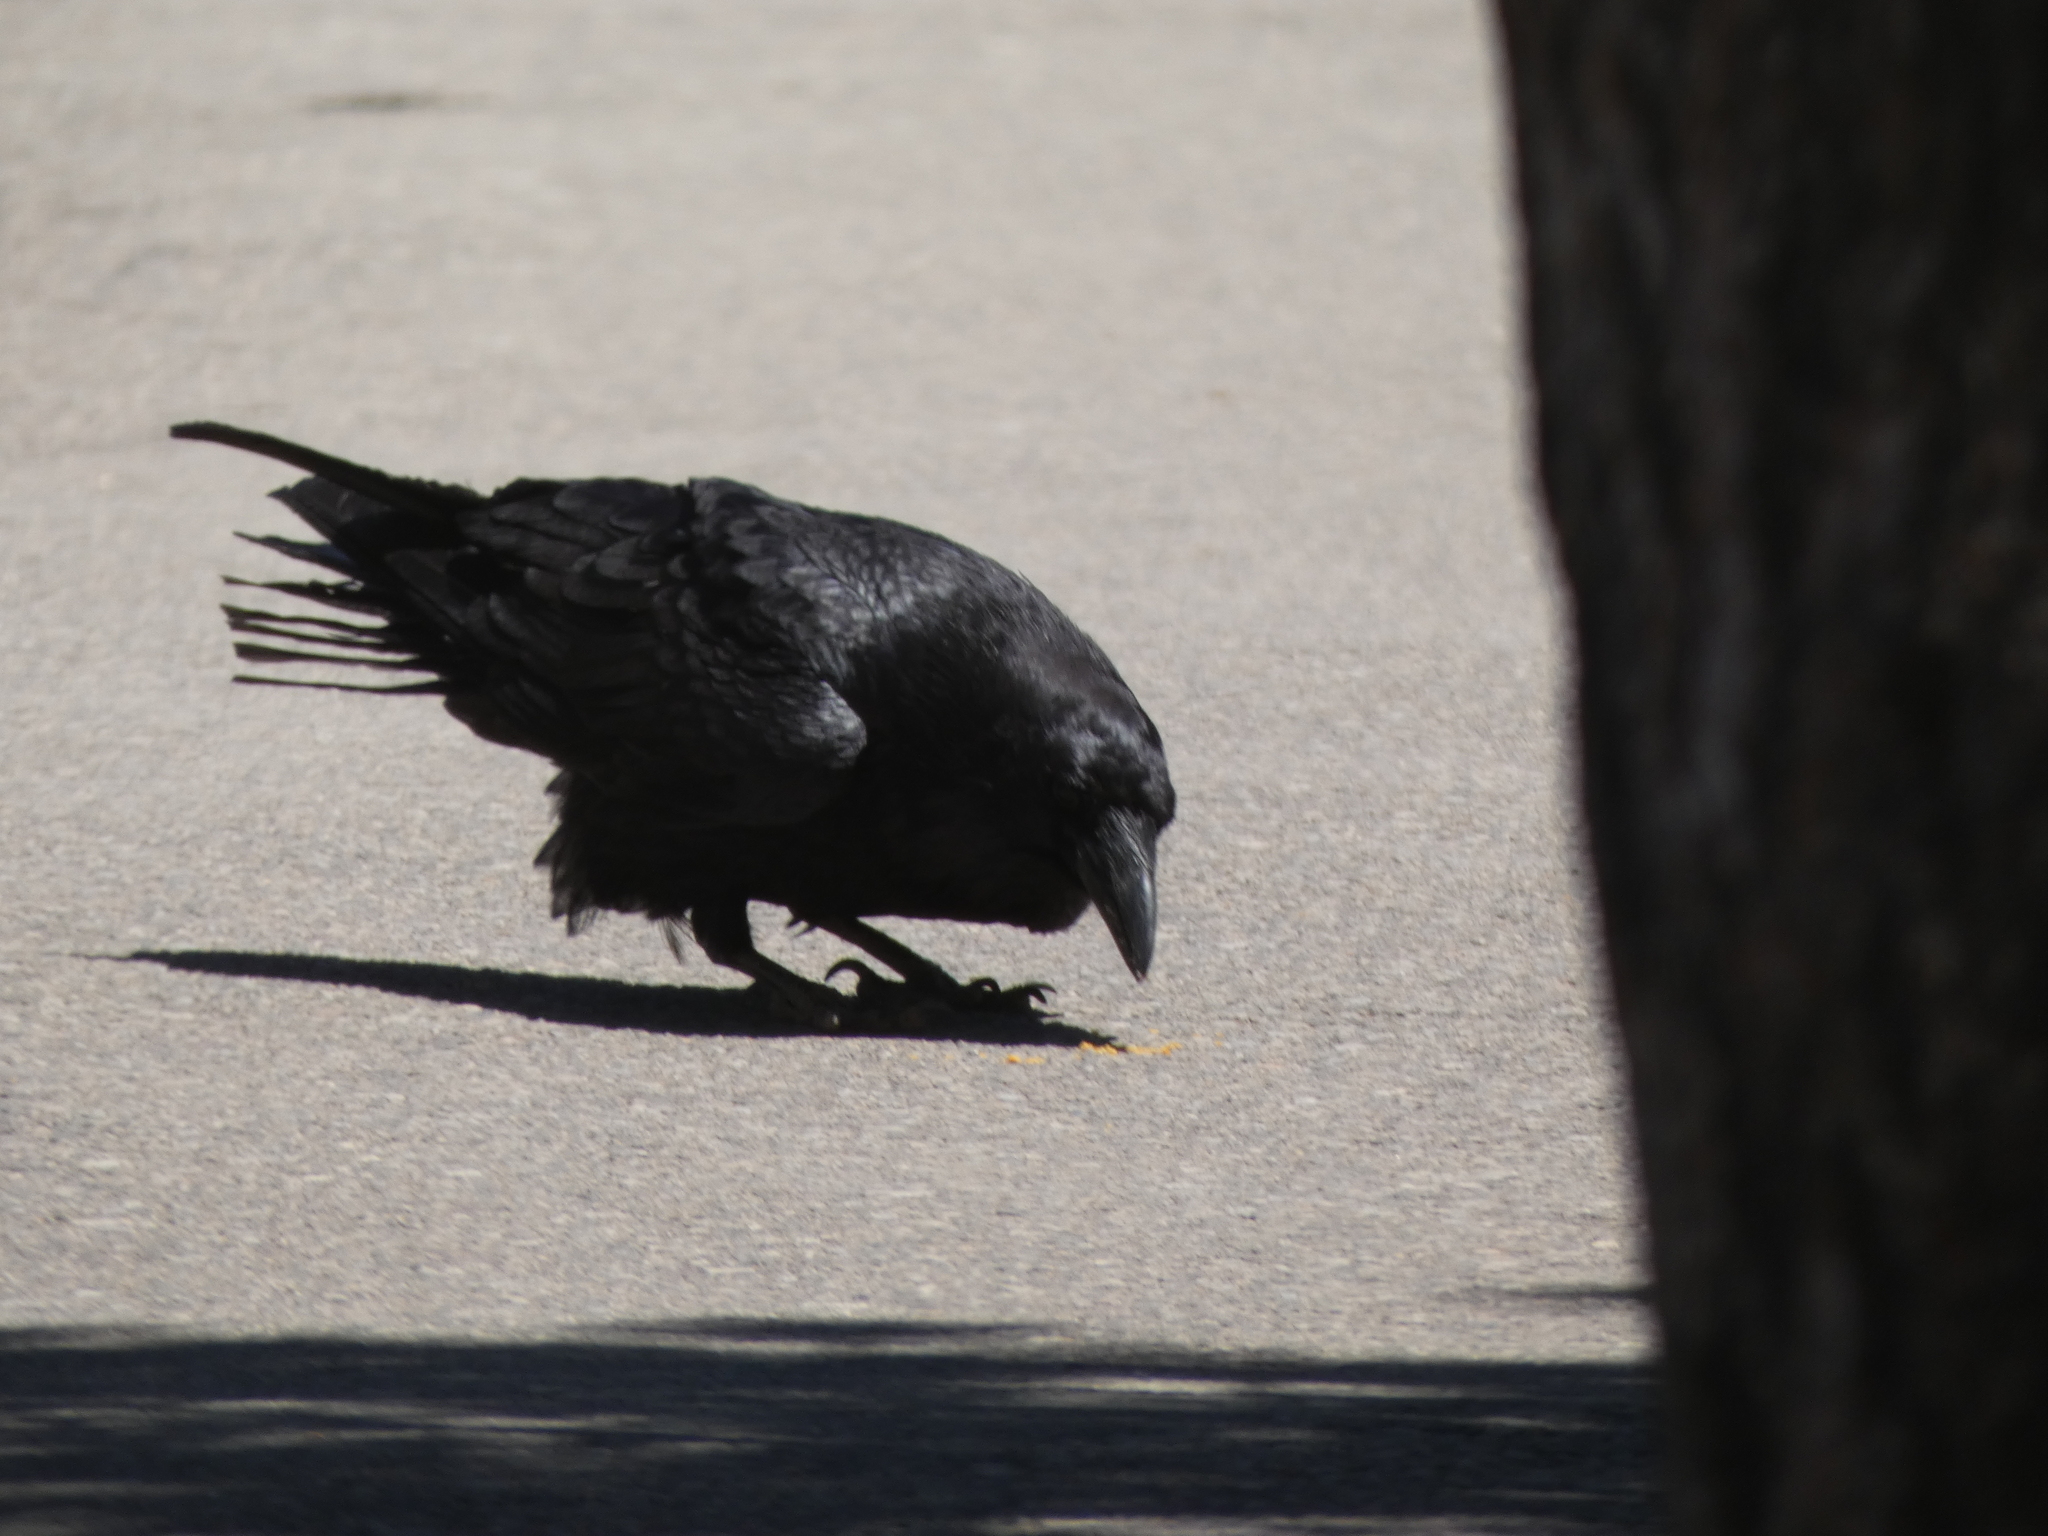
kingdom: Animalia
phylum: Chordata
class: Aves
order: Passeriformes
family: Corvidae
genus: Corvus
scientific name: Corvus corax
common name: Common raven
